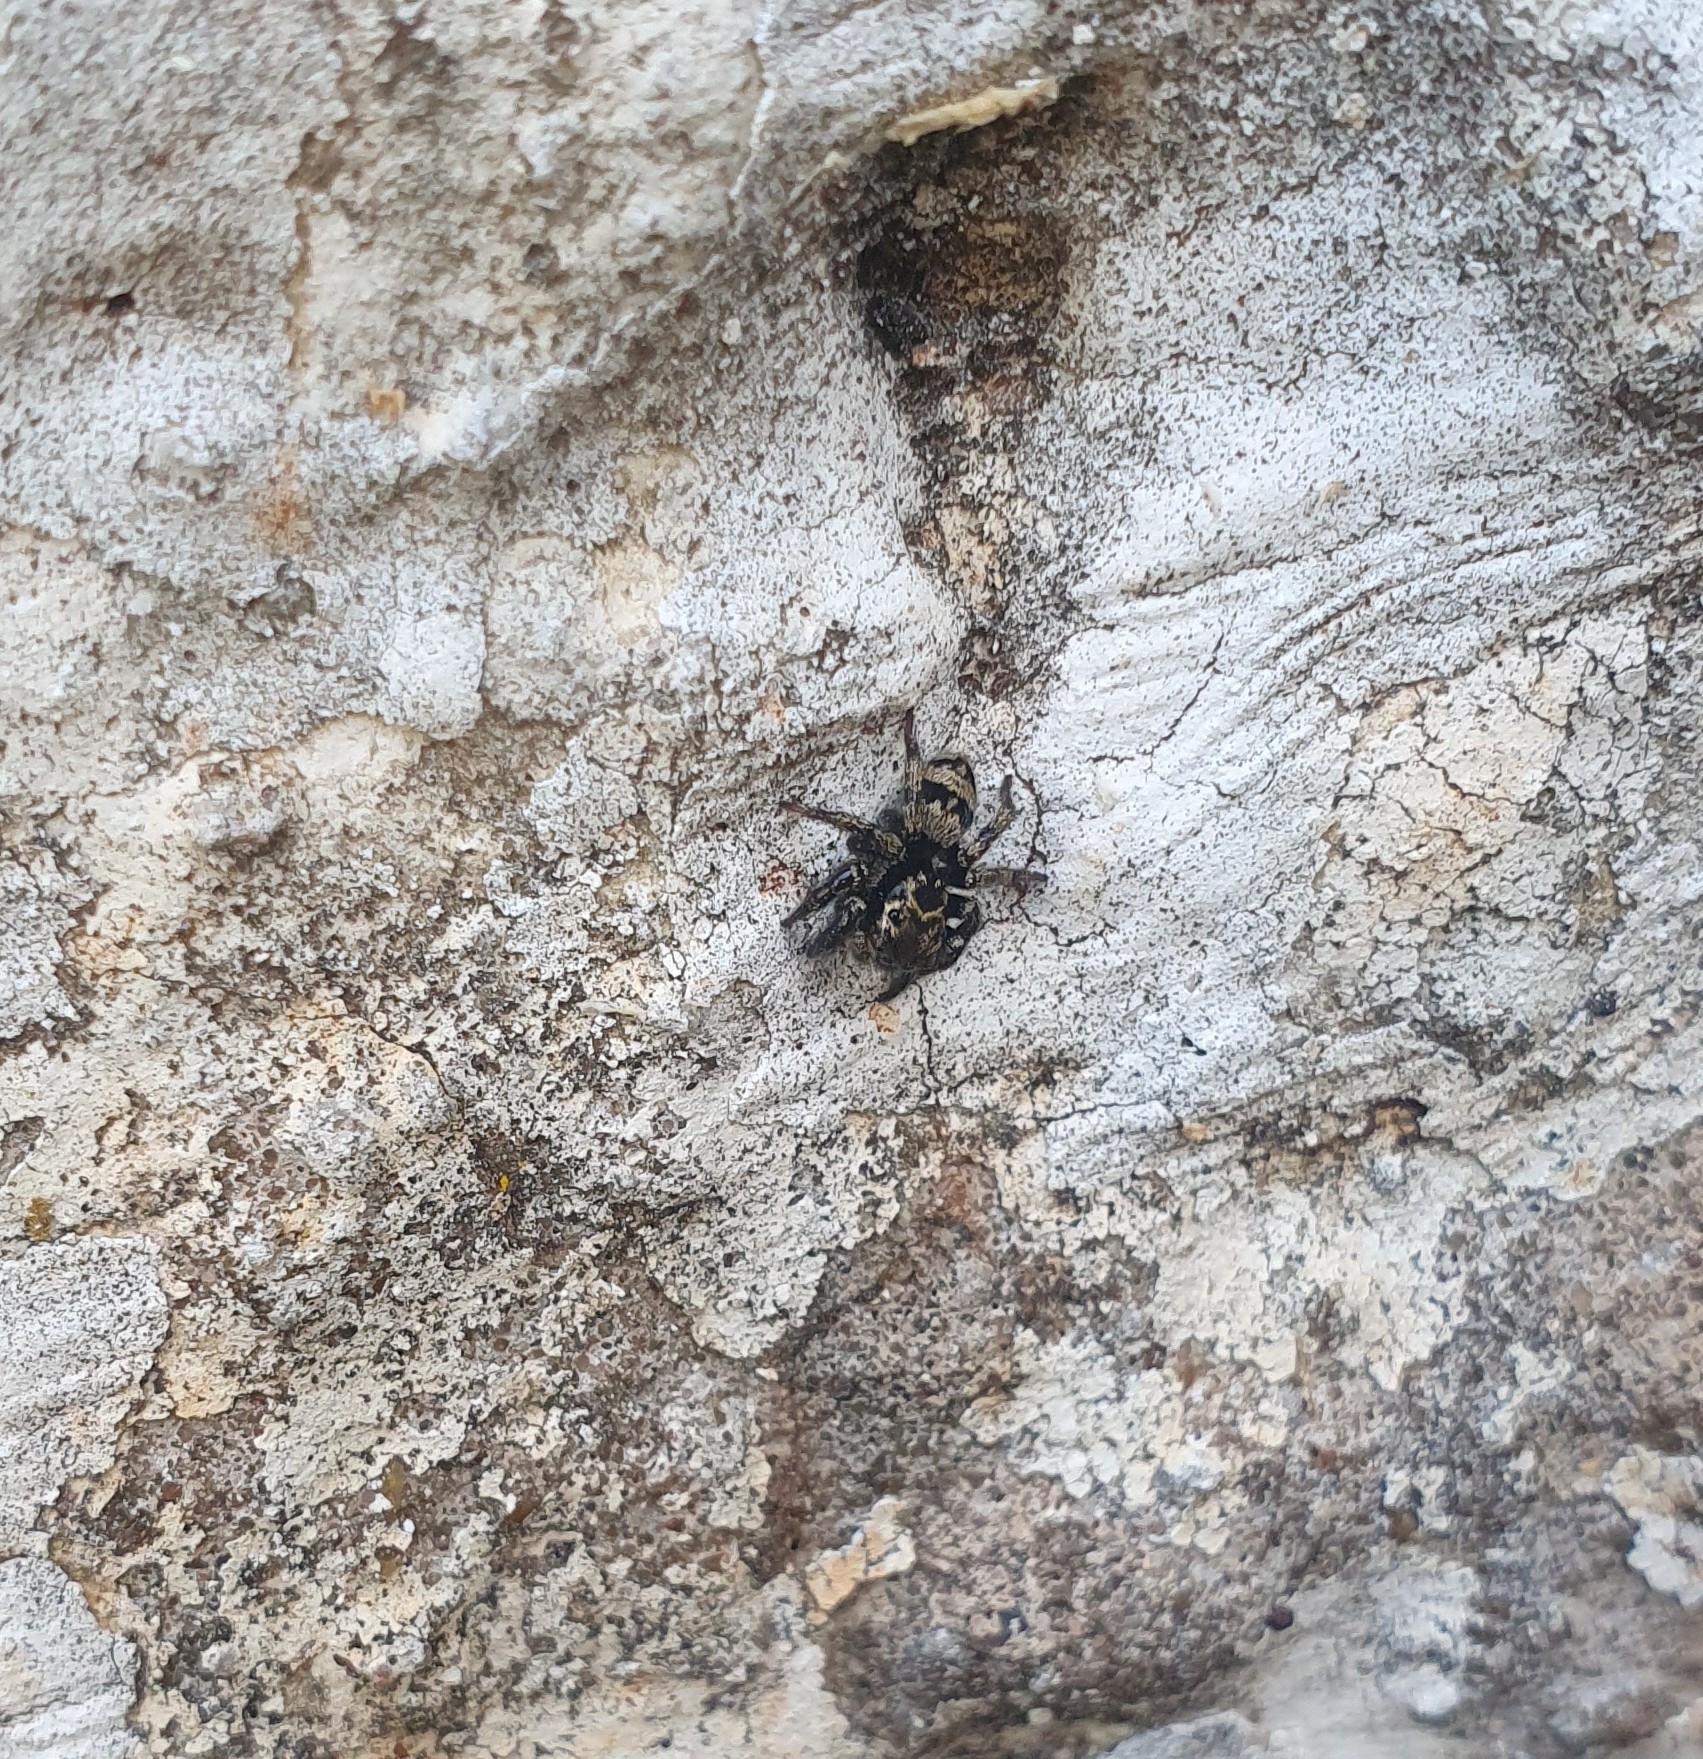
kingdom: Animalia
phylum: Arthropoda
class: Arachnida
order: Araneae
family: Salticidae
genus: Corythalia
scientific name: Corythalia conferta
